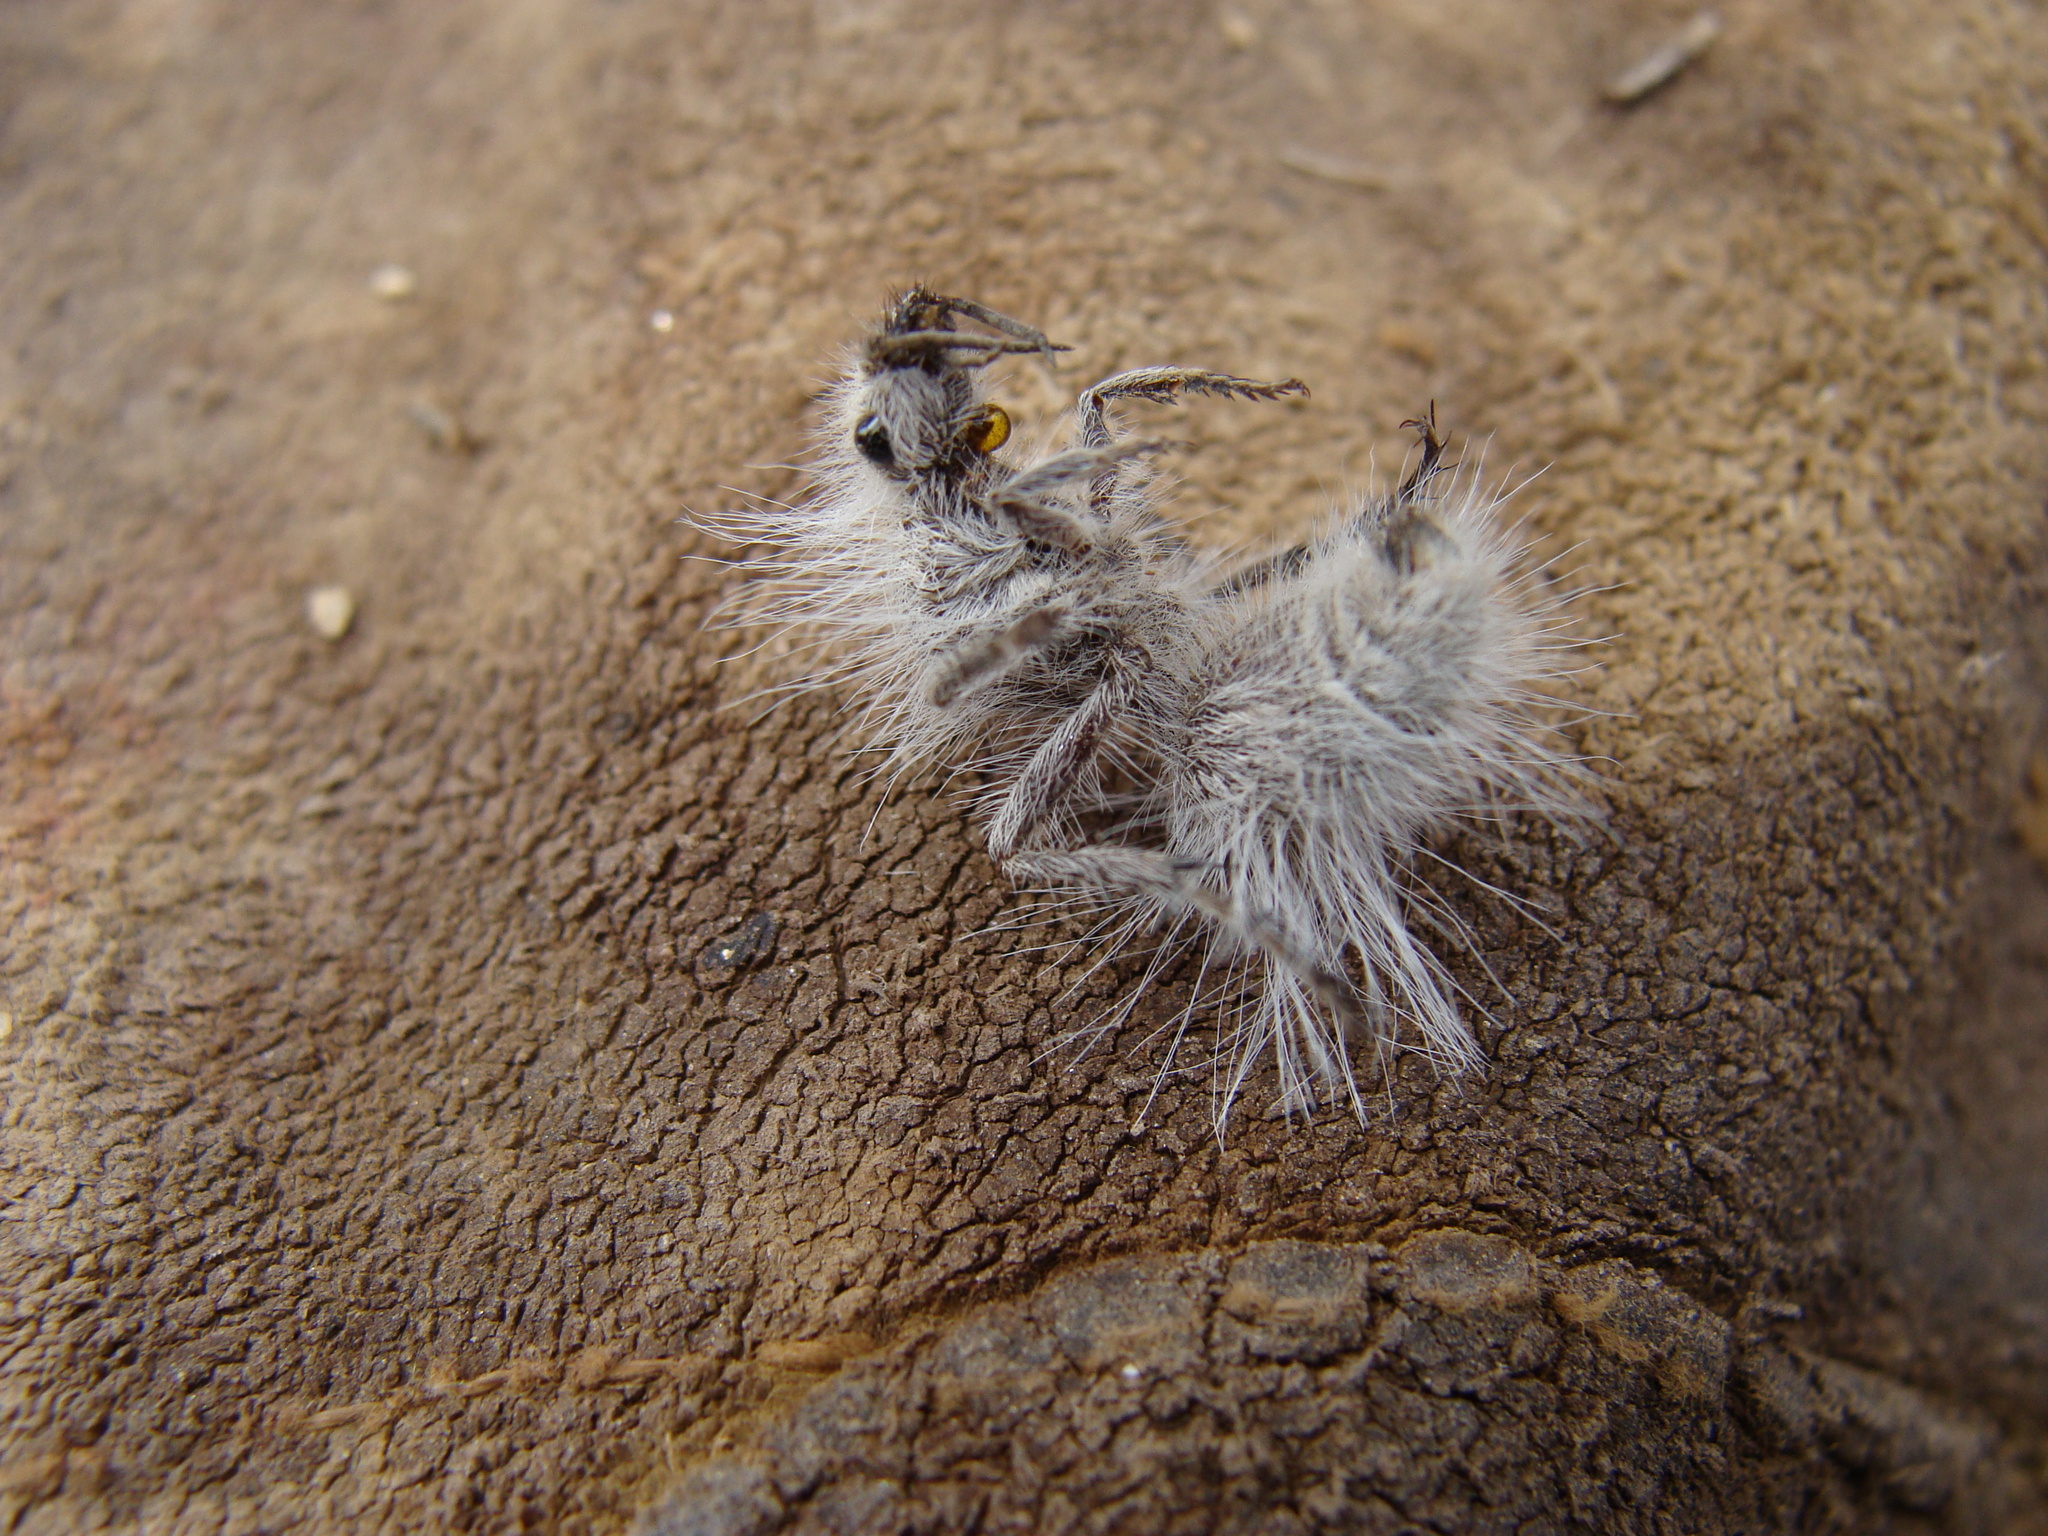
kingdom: Animalia
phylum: Arthropoda
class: Insecta
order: Hymenoptera
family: Mutillidae
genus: Dasymutilla
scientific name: Dasymutilla pseudopappus
